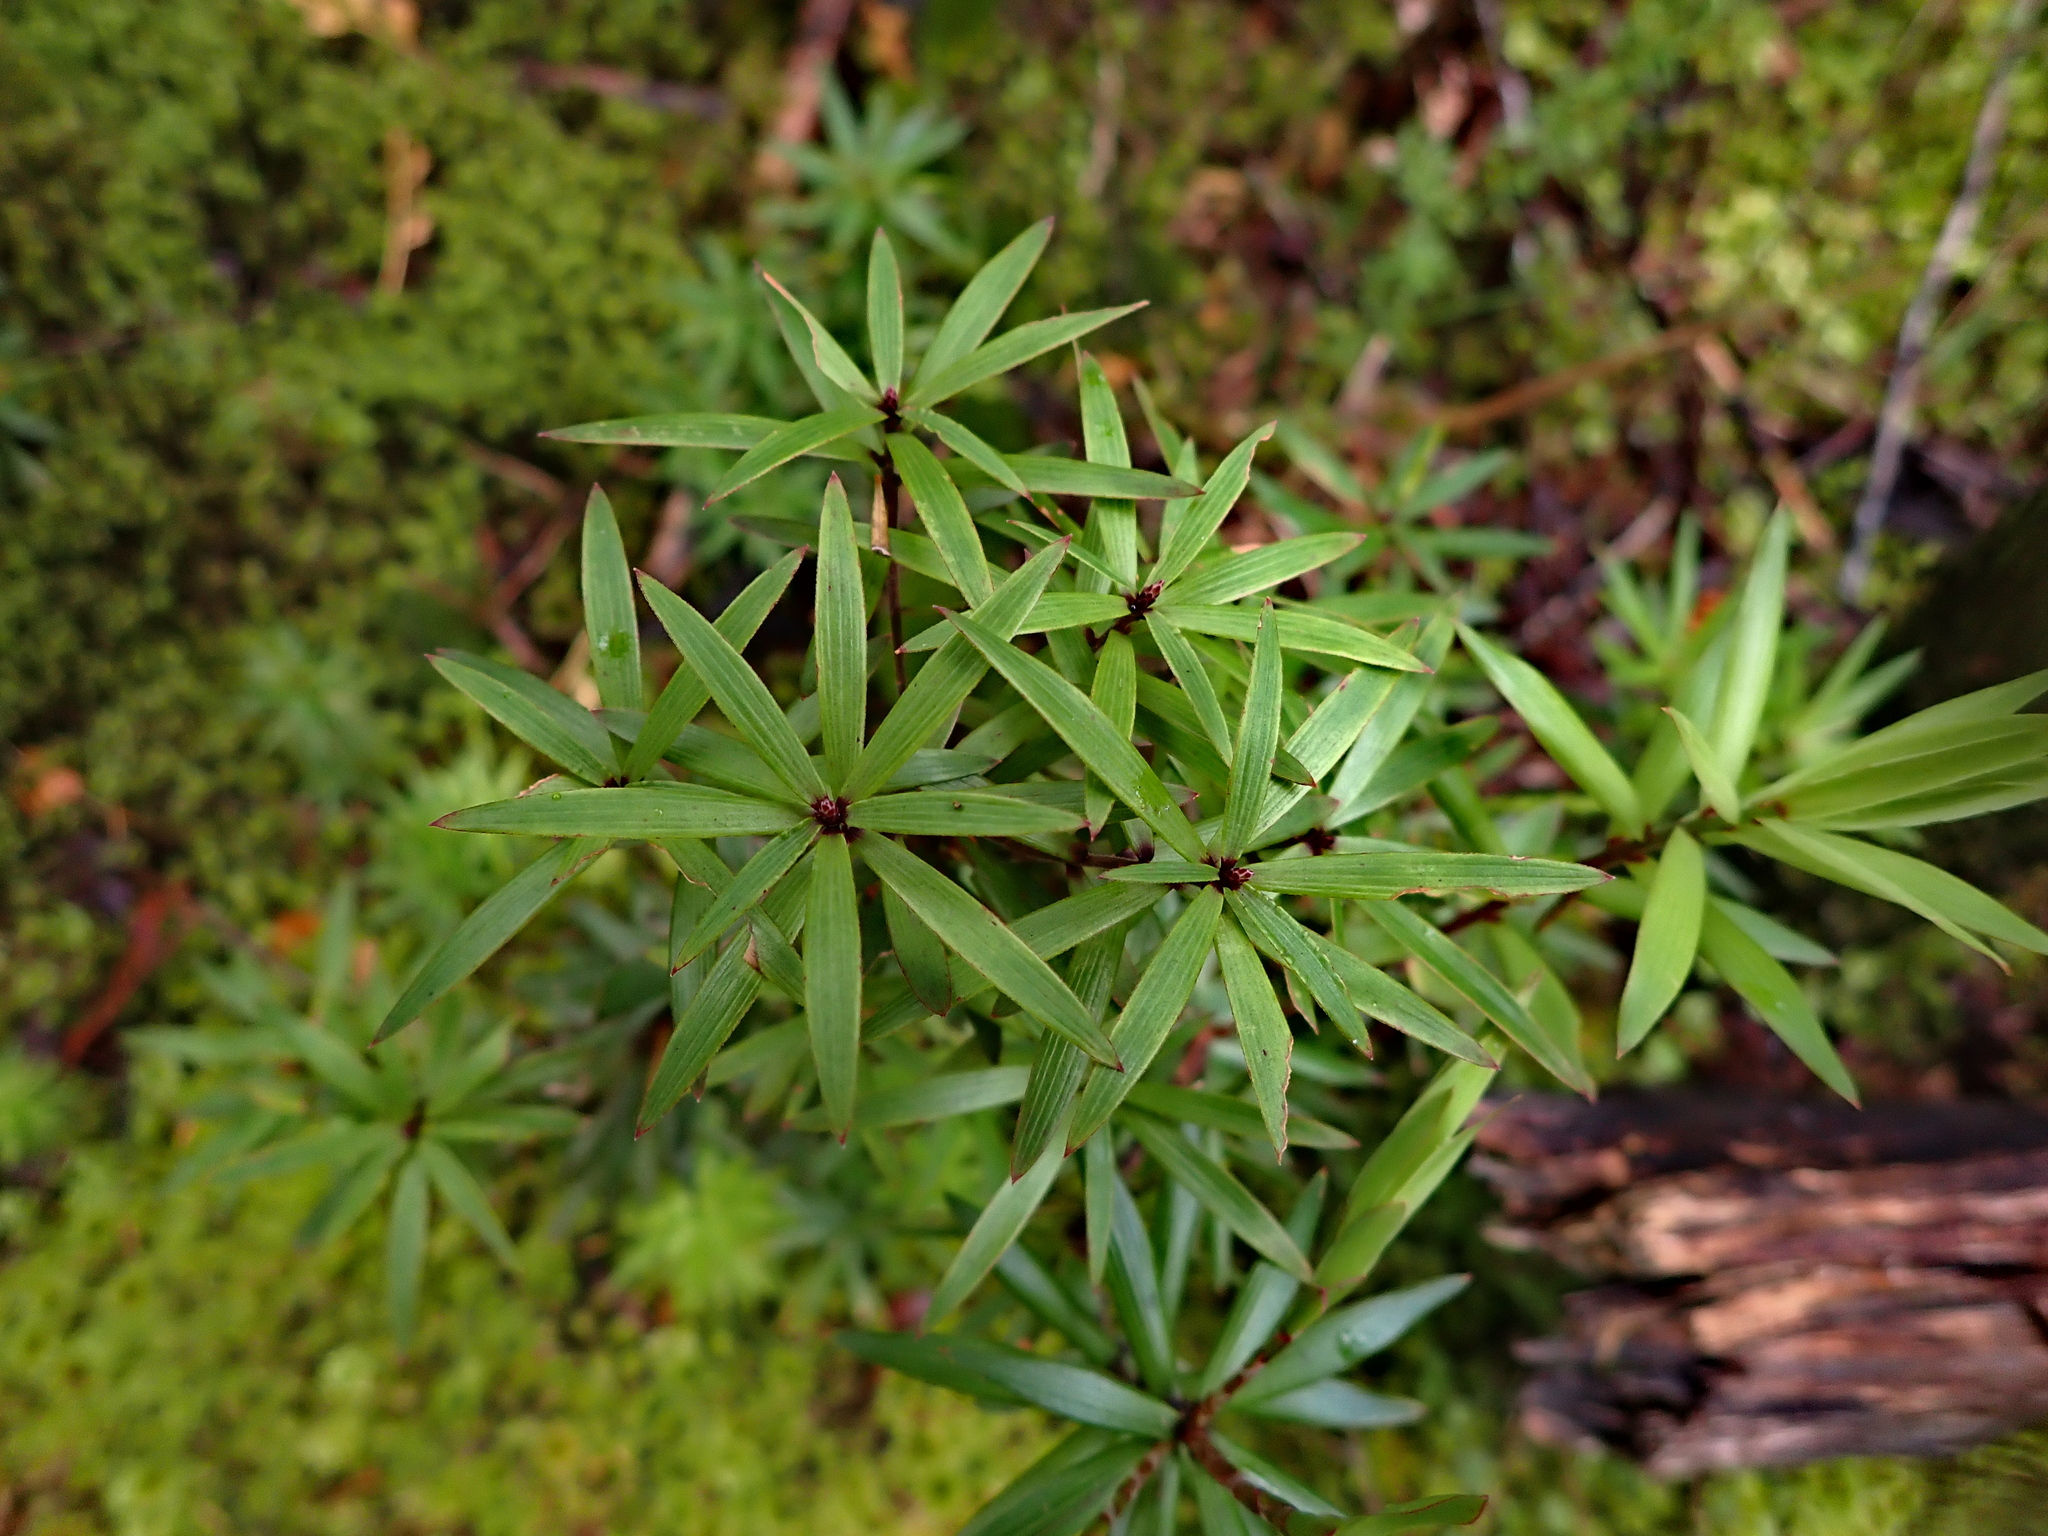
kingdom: Plantae
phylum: Tracheophyta
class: Magnoliopsida
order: Ericales
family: Ericaceae
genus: Leucopogon
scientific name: Leucopogon fasciculatus
